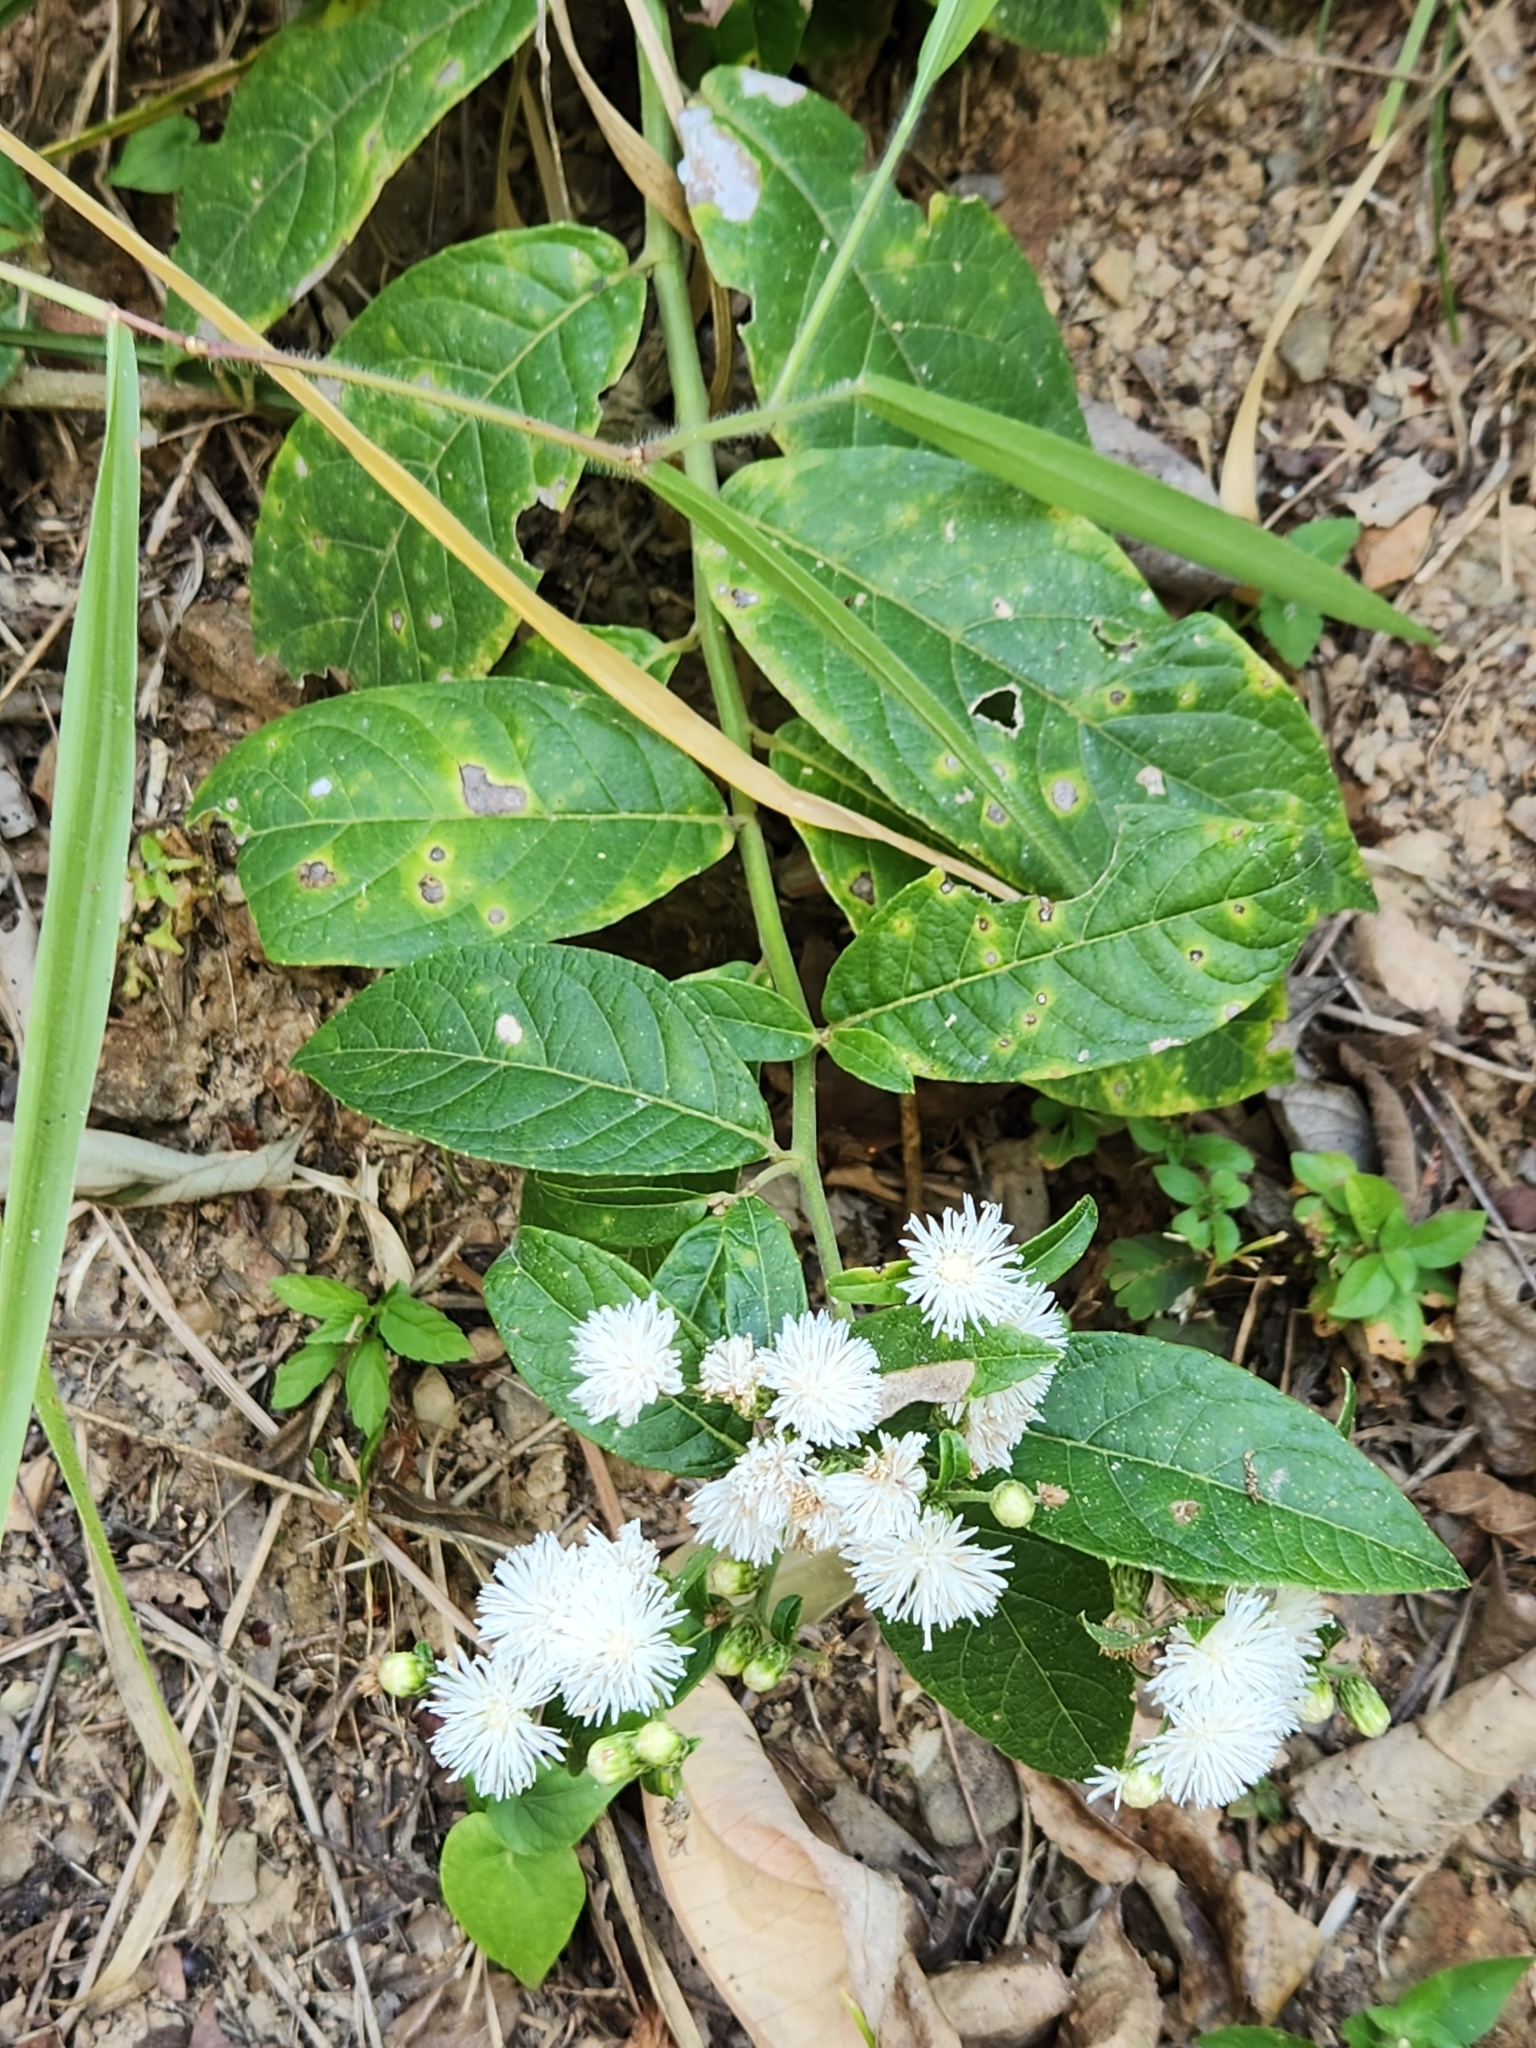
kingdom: Plantae
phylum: Tracheophyta
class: Magnoliopsida
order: Asterales
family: Asteraceae
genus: Lepidaploa
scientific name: Lepidaploa argyropappa
